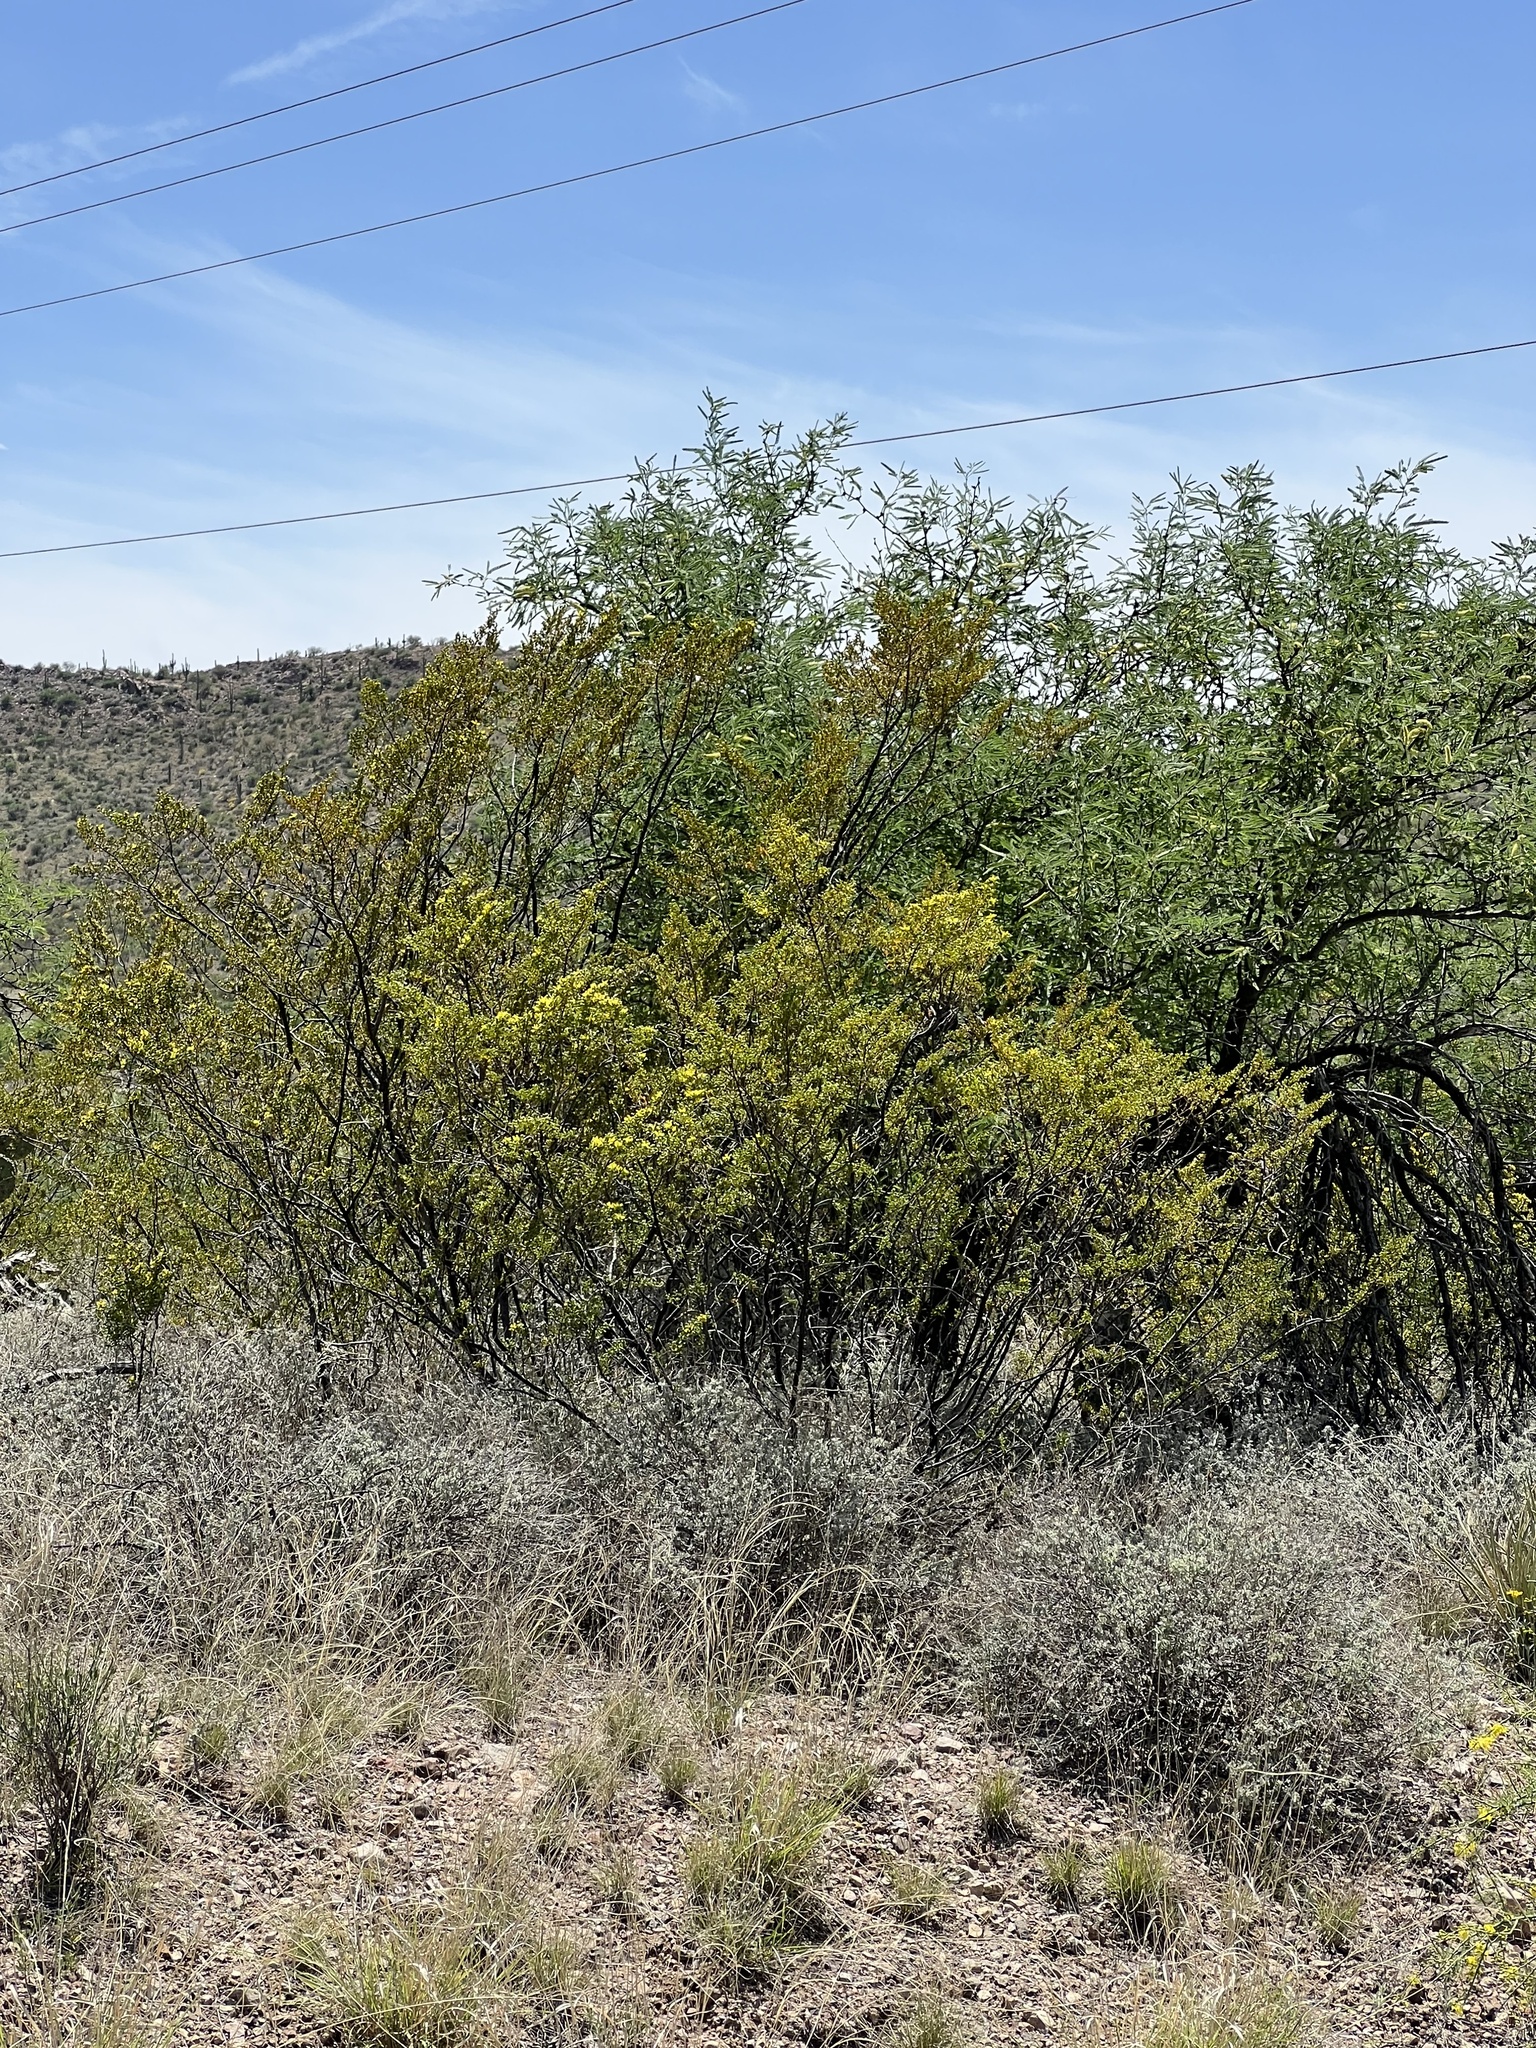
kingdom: Plantae
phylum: Tracheophyta
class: Magnoliopsida
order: Zygophyllales
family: Zygophyllaceae
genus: Larrea
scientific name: Larrea tridentata
